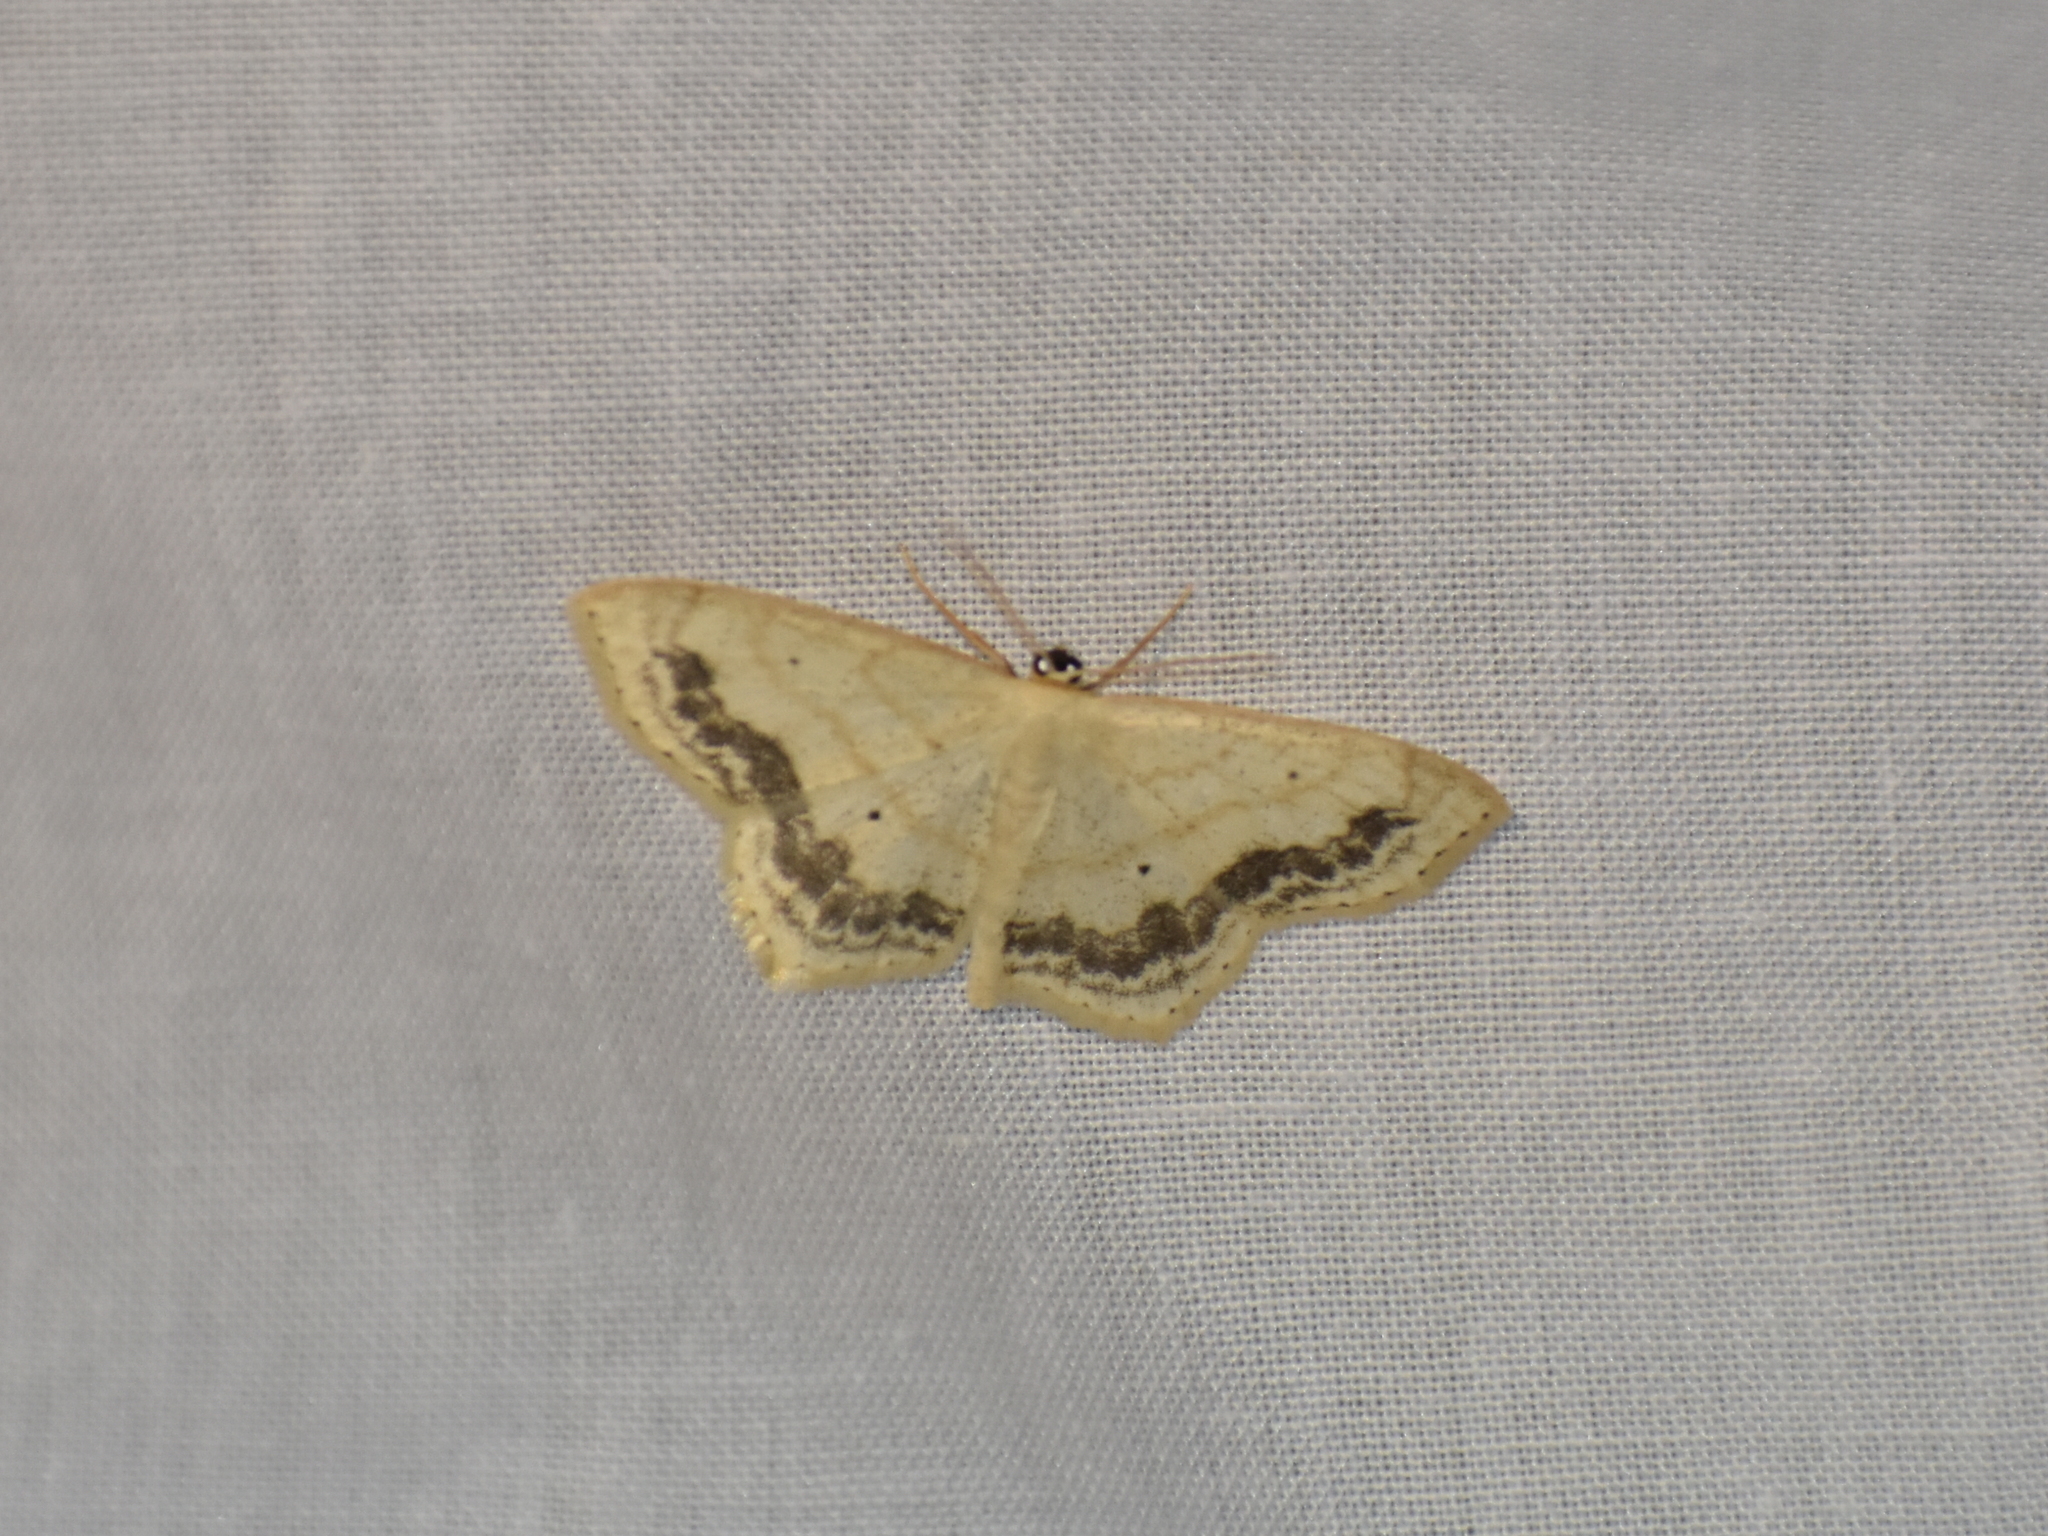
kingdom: Animalia
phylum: Arthropoda
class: Insecta
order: Lepidoptera
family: Geometridae
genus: Scopula
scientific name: Scopula limboundata
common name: Large lace border
